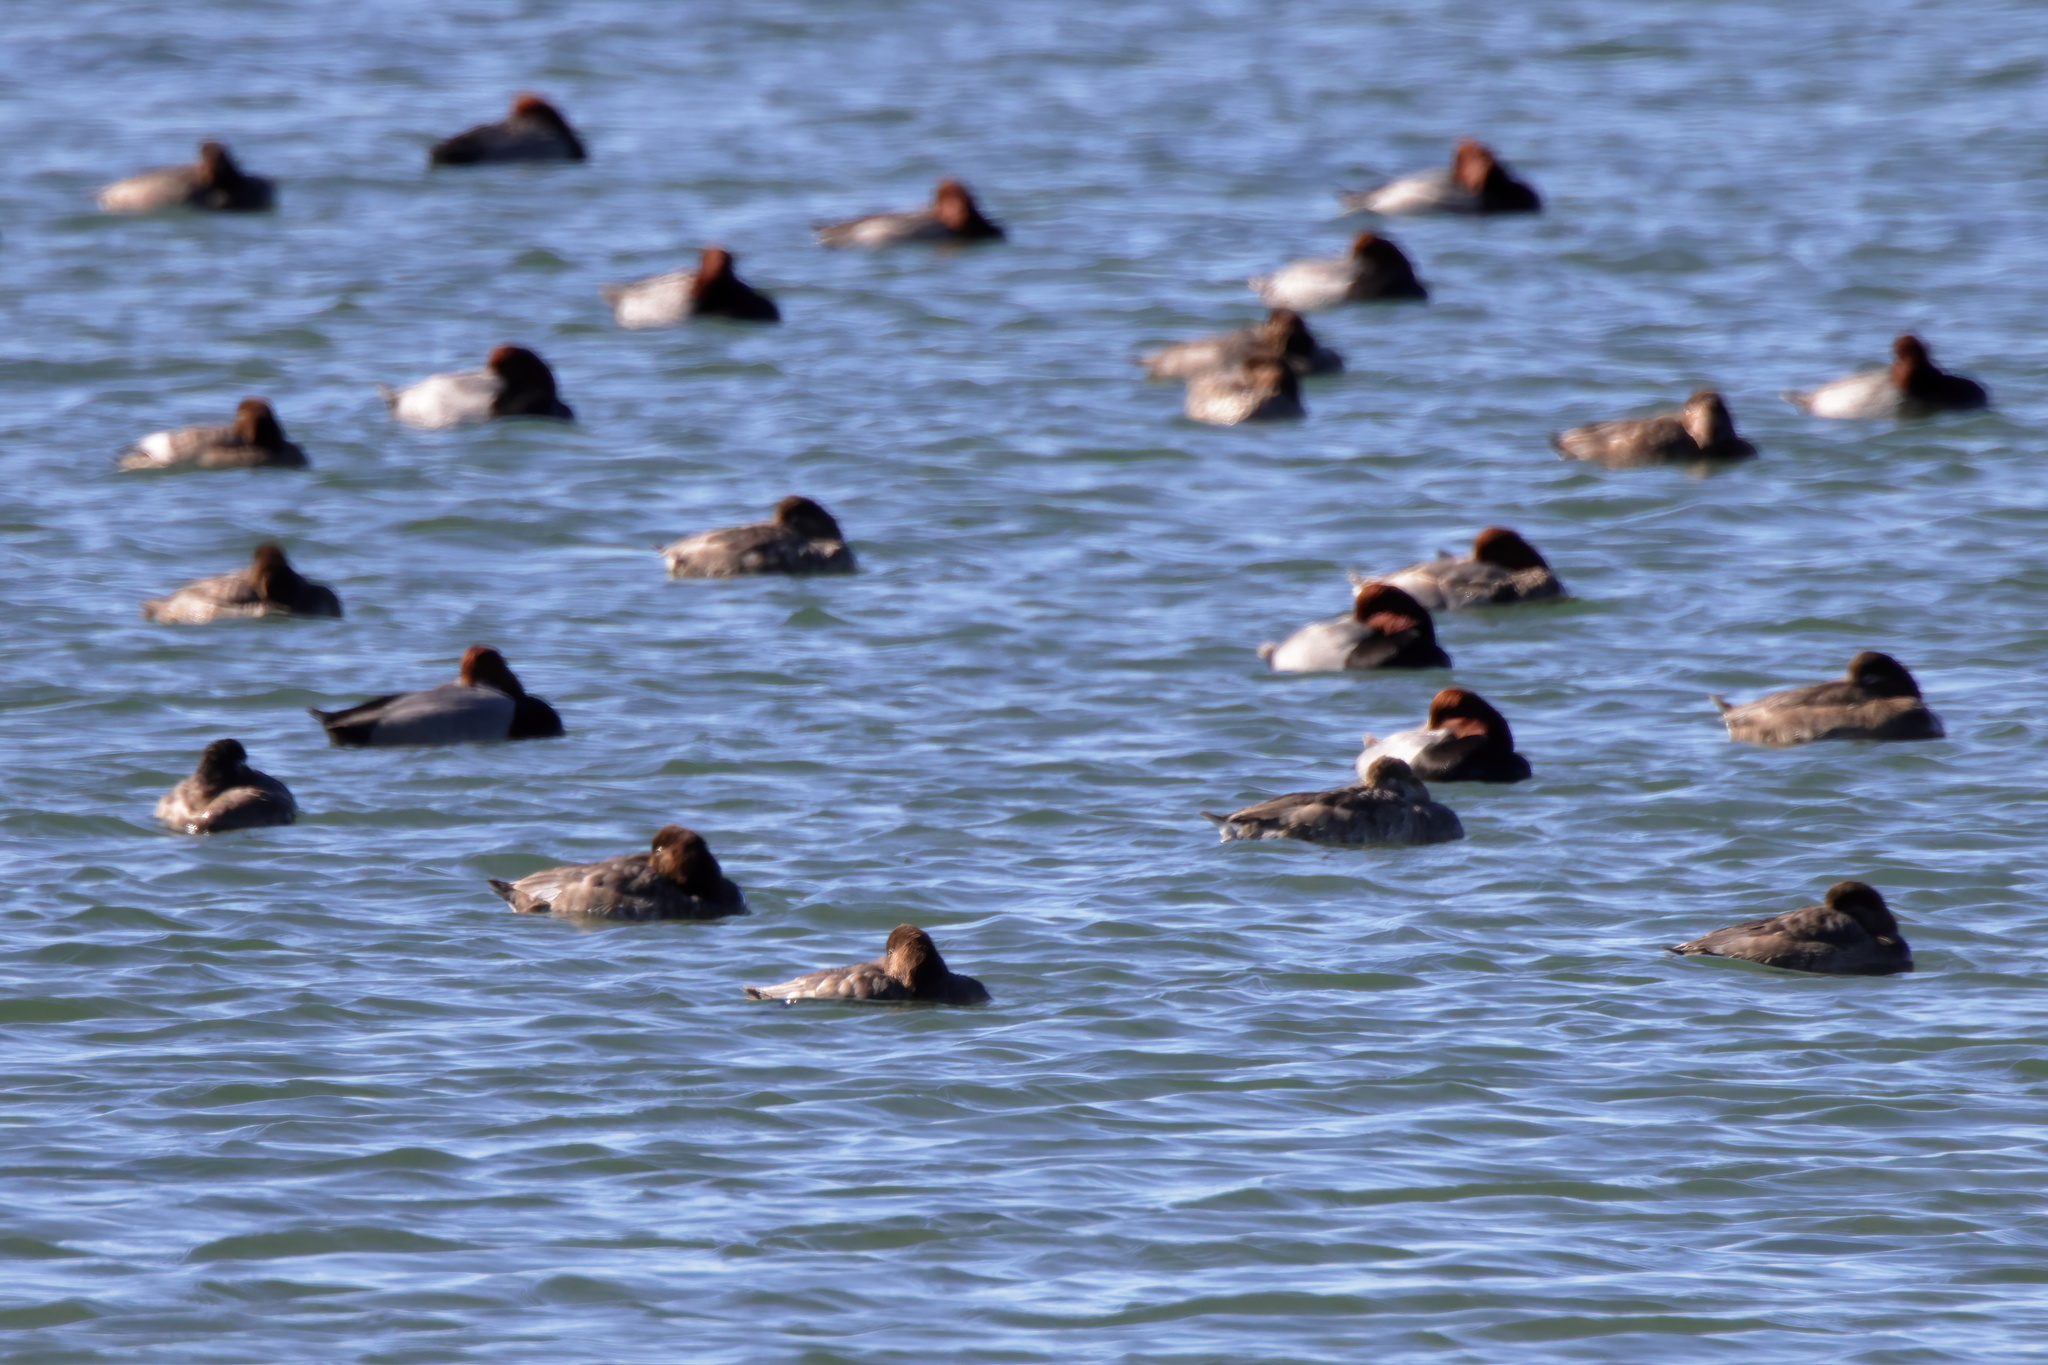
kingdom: Animalia
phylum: Chordata
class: Aves
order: Anseriformes
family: Anatidae
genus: Aythya
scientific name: Aythya americana
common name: Redhead
